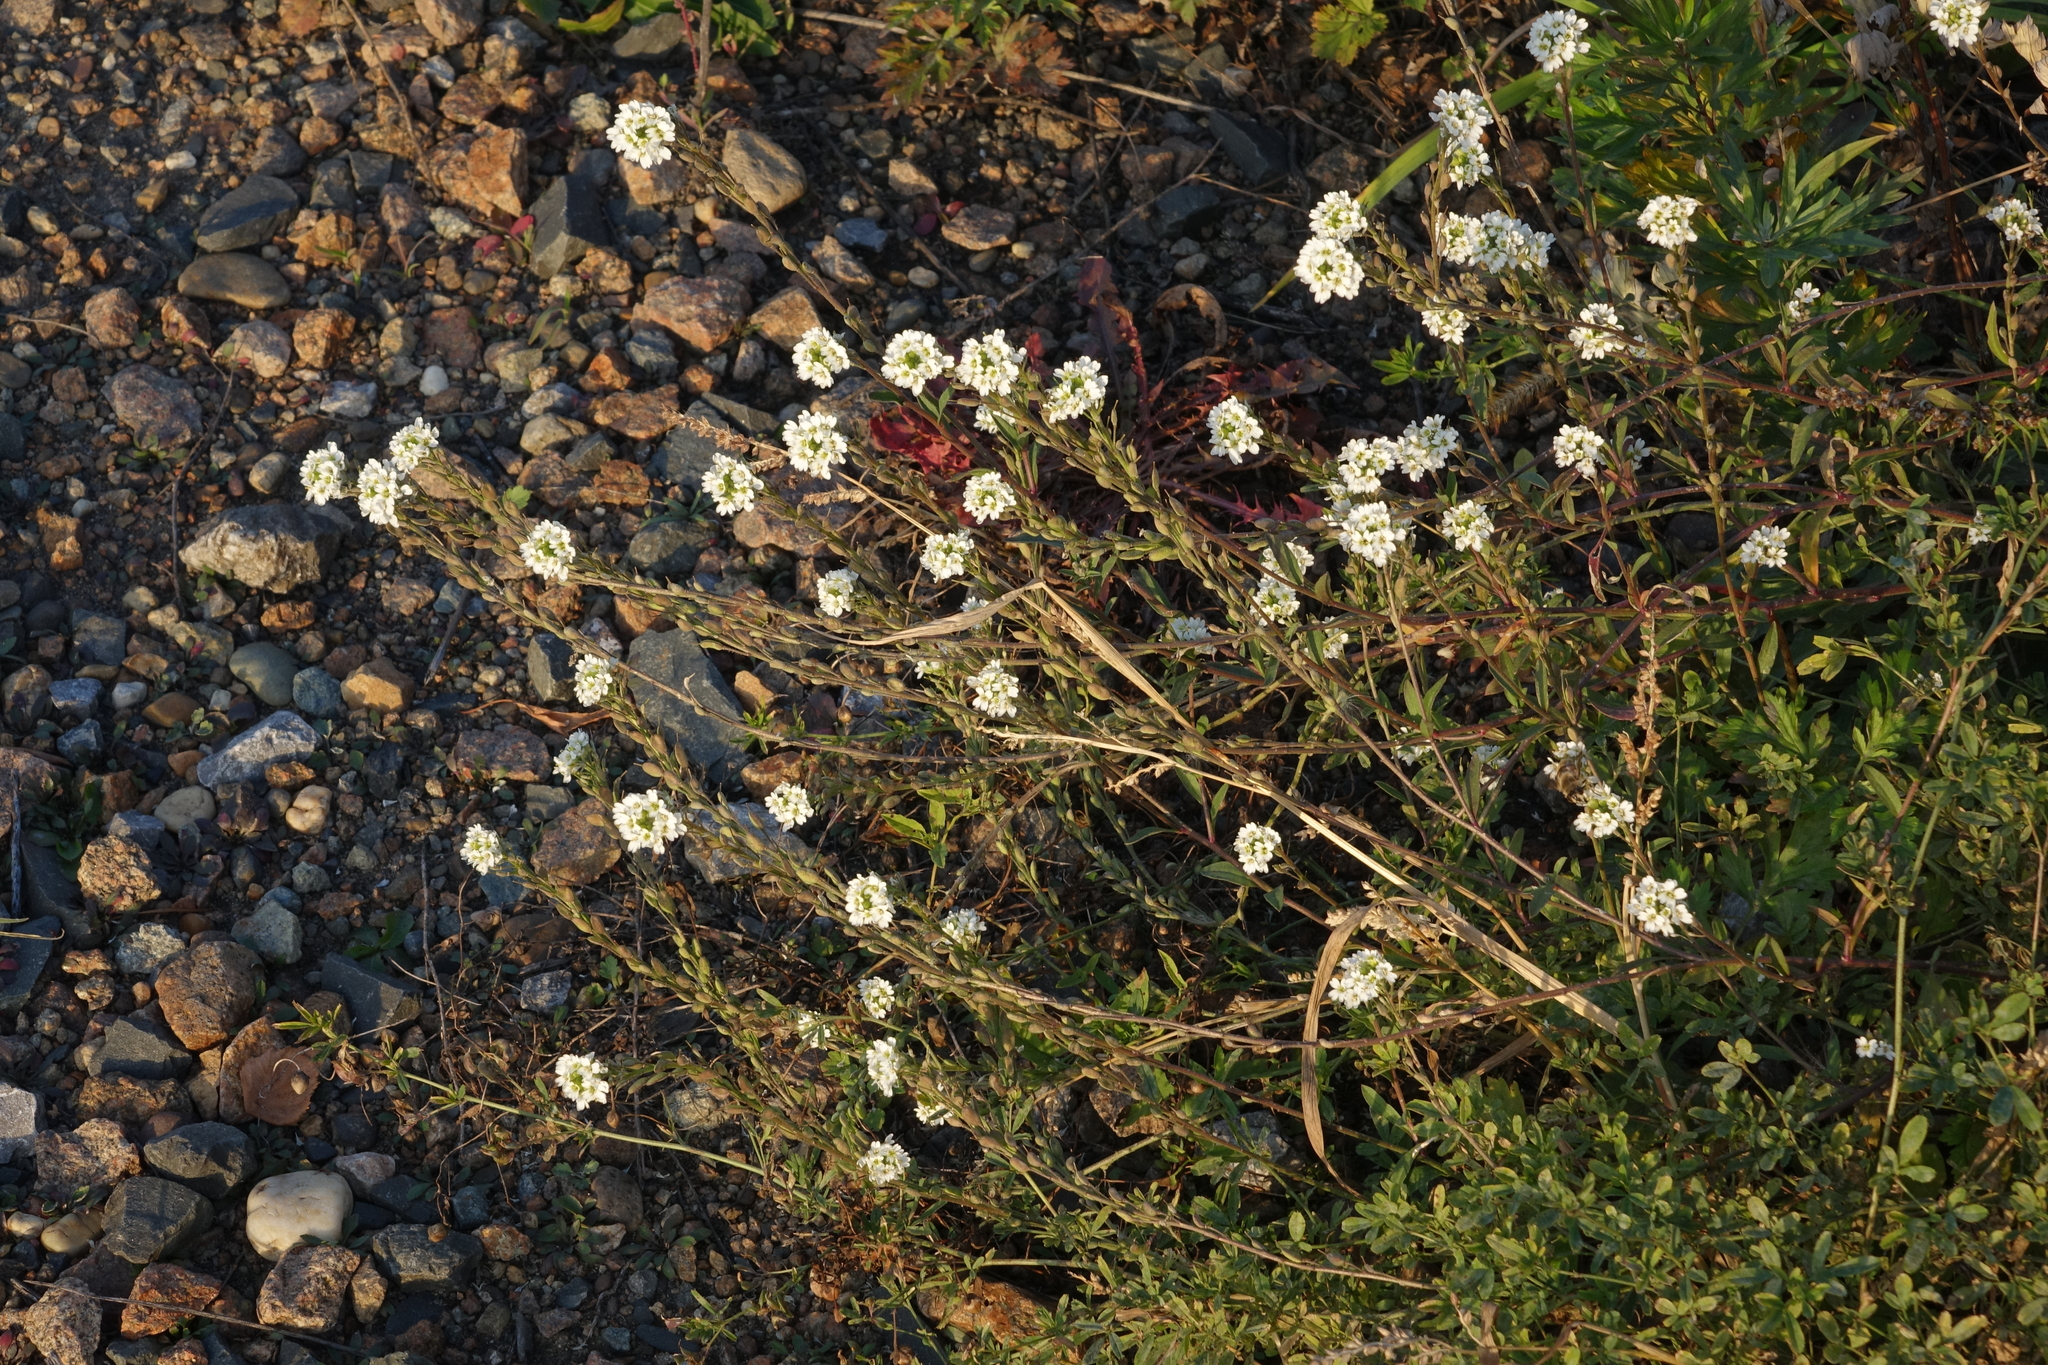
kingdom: Plantae
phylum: Tracheophyta
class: Magnoliopsida
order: Brassicales
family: Brassicaceae
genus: Berteroa
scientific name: Berteroa incana
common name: Hoary alison
